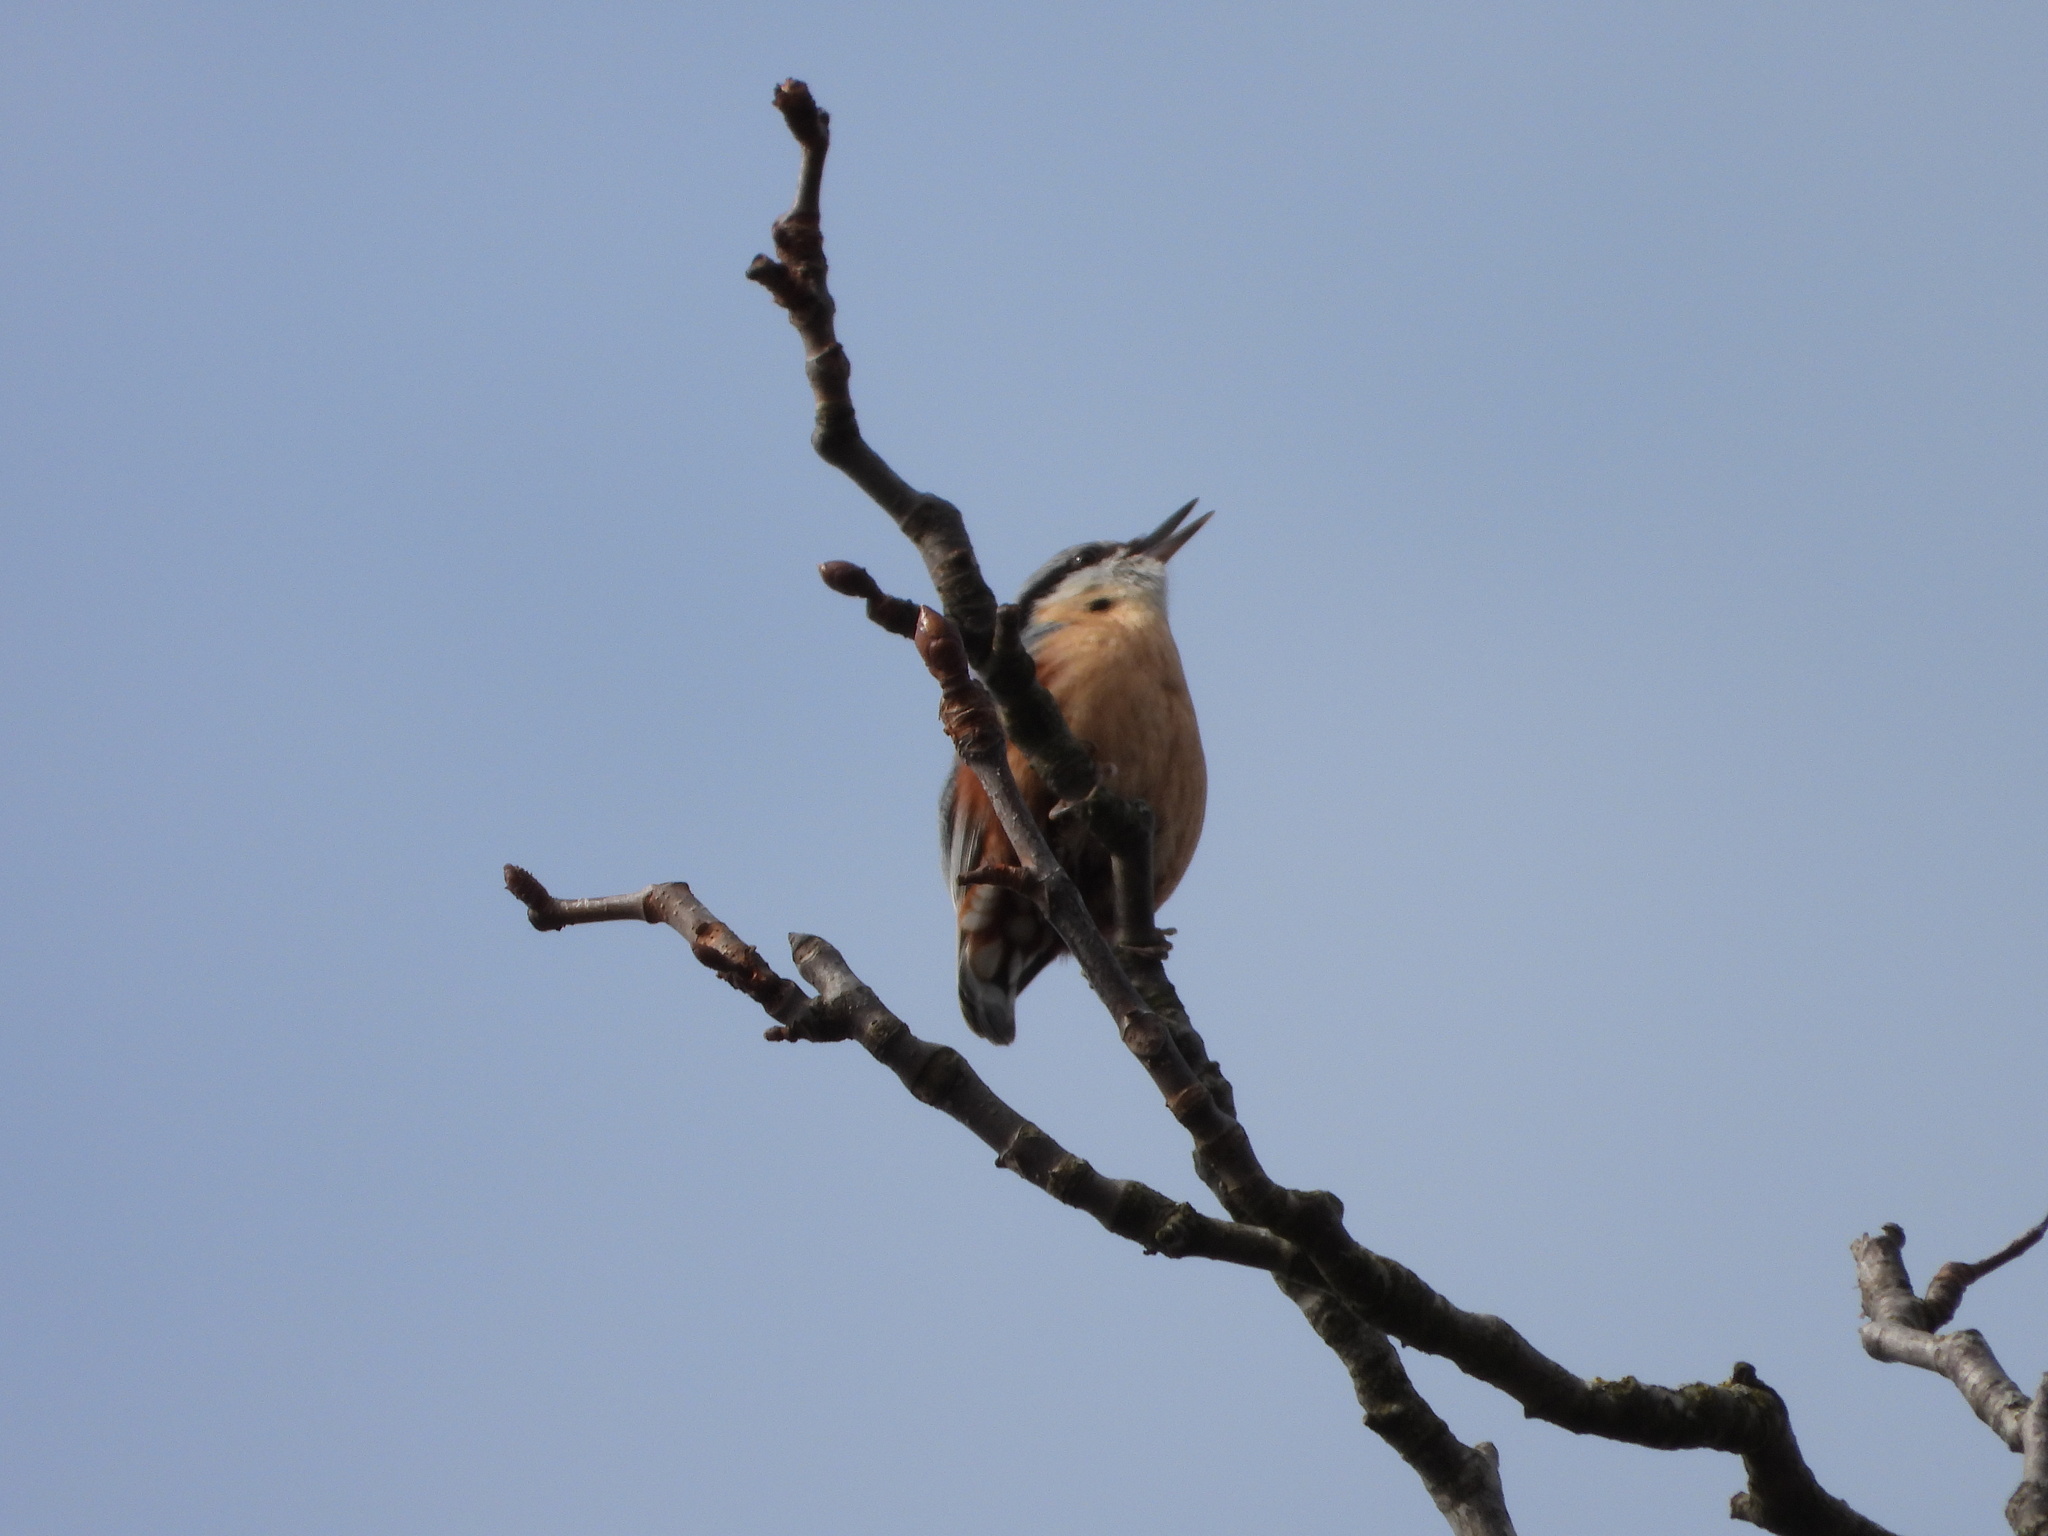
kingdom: Animalia
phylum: Chordata
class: Aves
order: Passeriformes
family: Sittidae
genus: Sitta
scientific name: Sitta europaea
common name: Eurasian nuthatch
